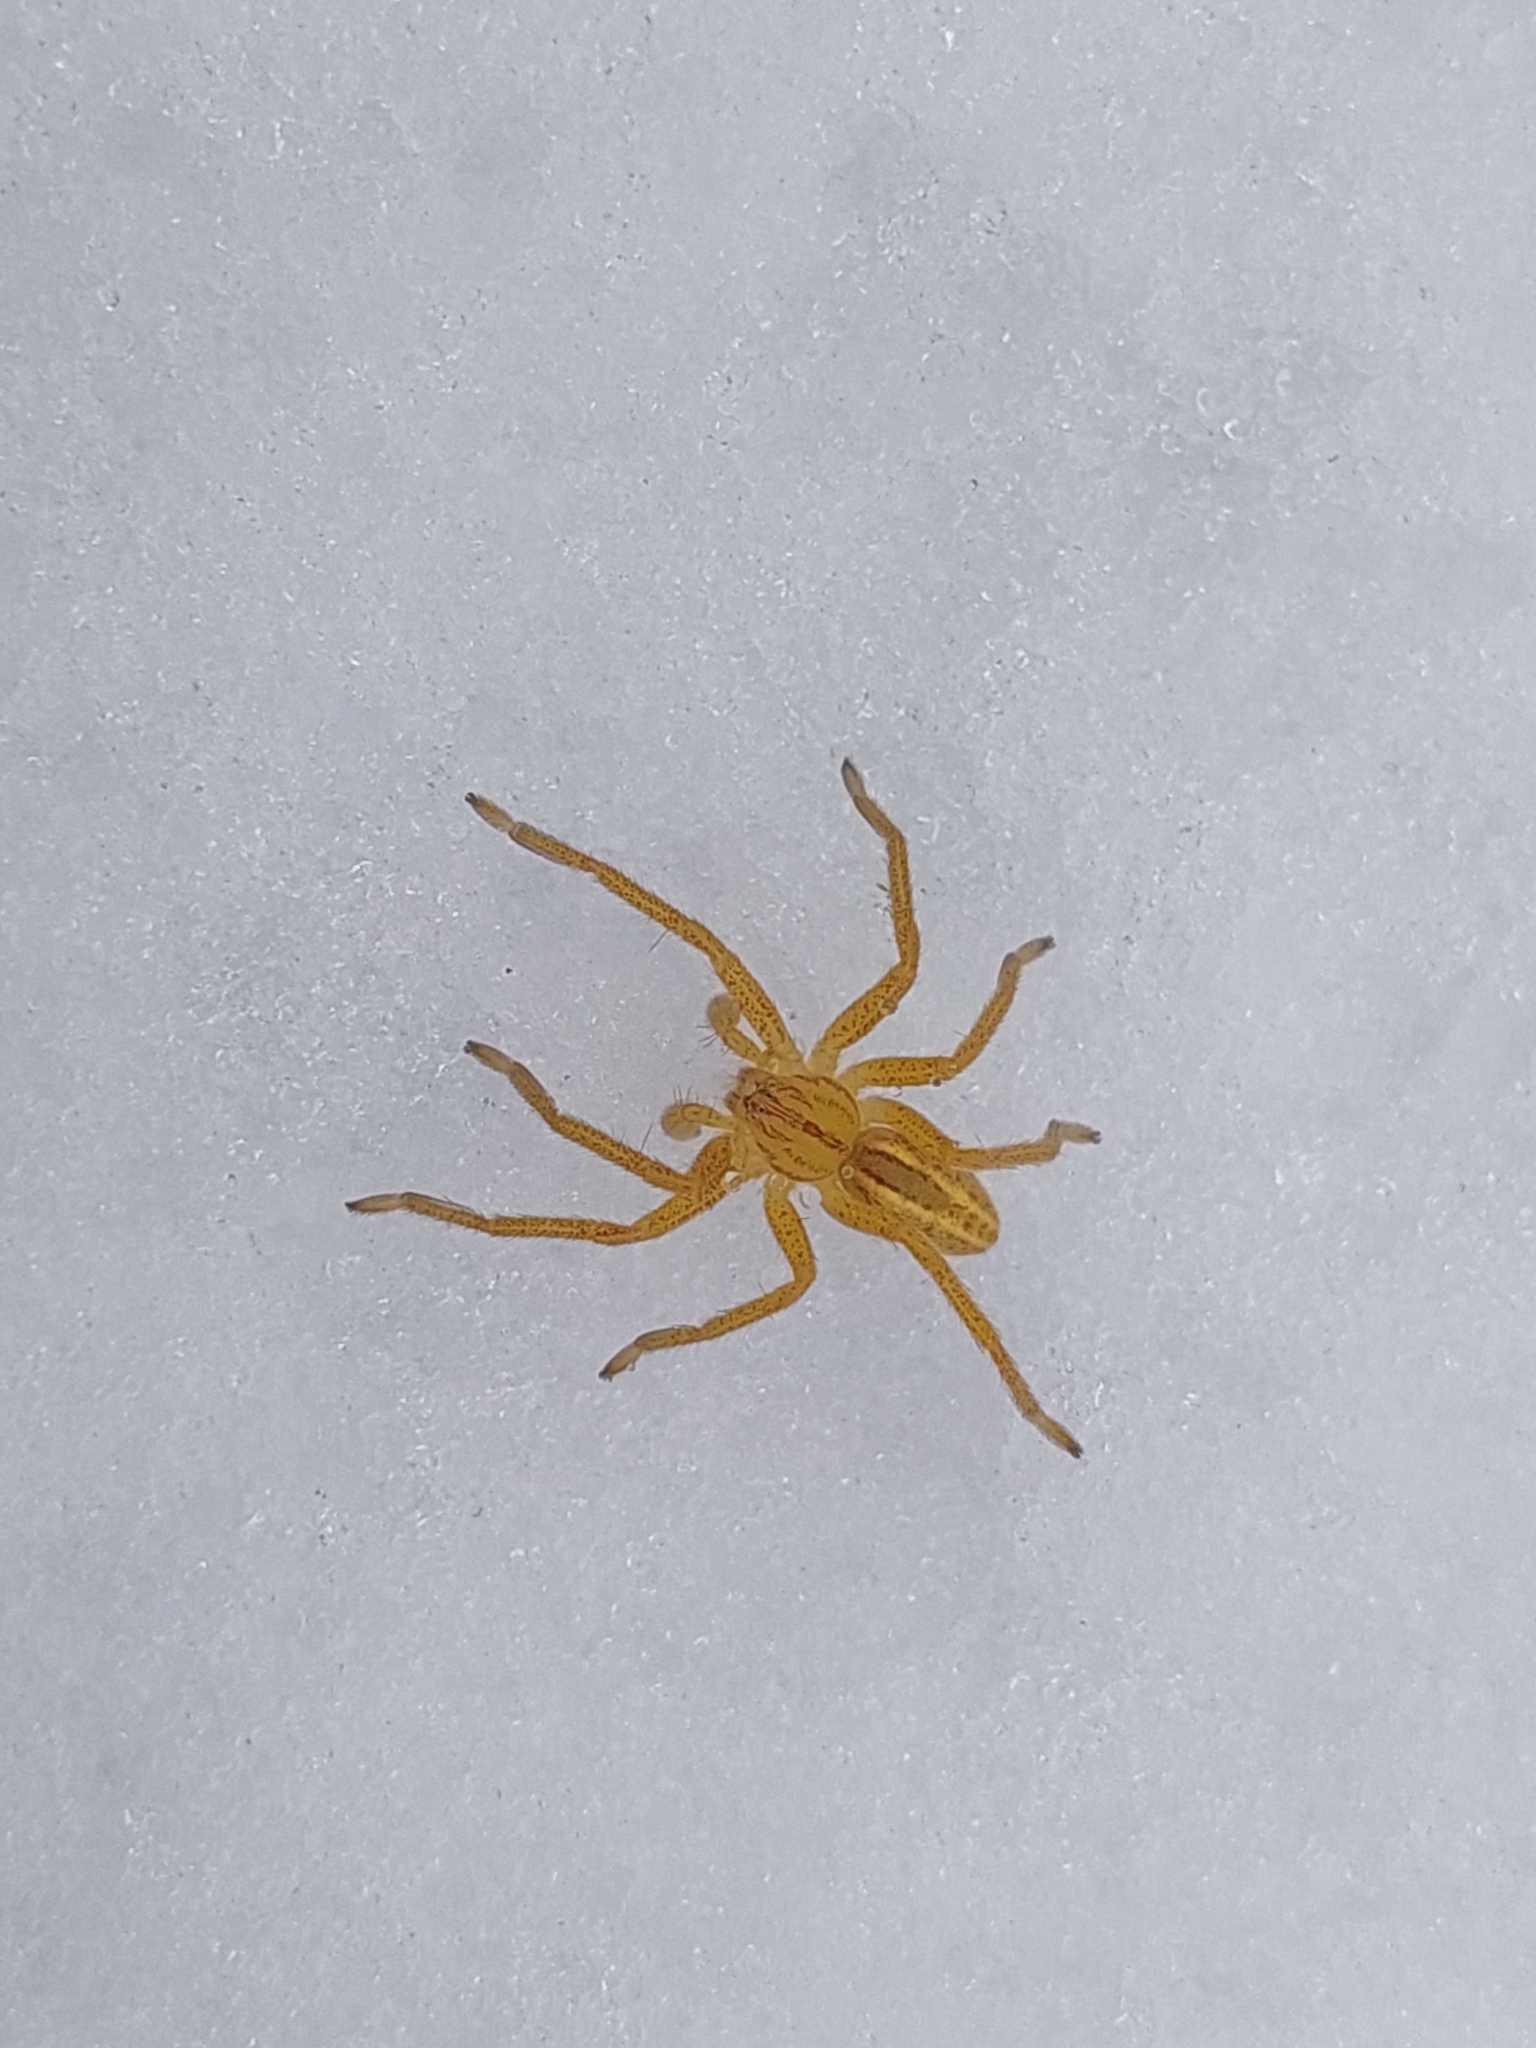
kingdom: Animalia
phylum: Arthropoda
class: Arachnida
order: Araneae
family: Sparassidae
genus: Micrommata
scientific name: Micrommata virescens
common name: Green spider
